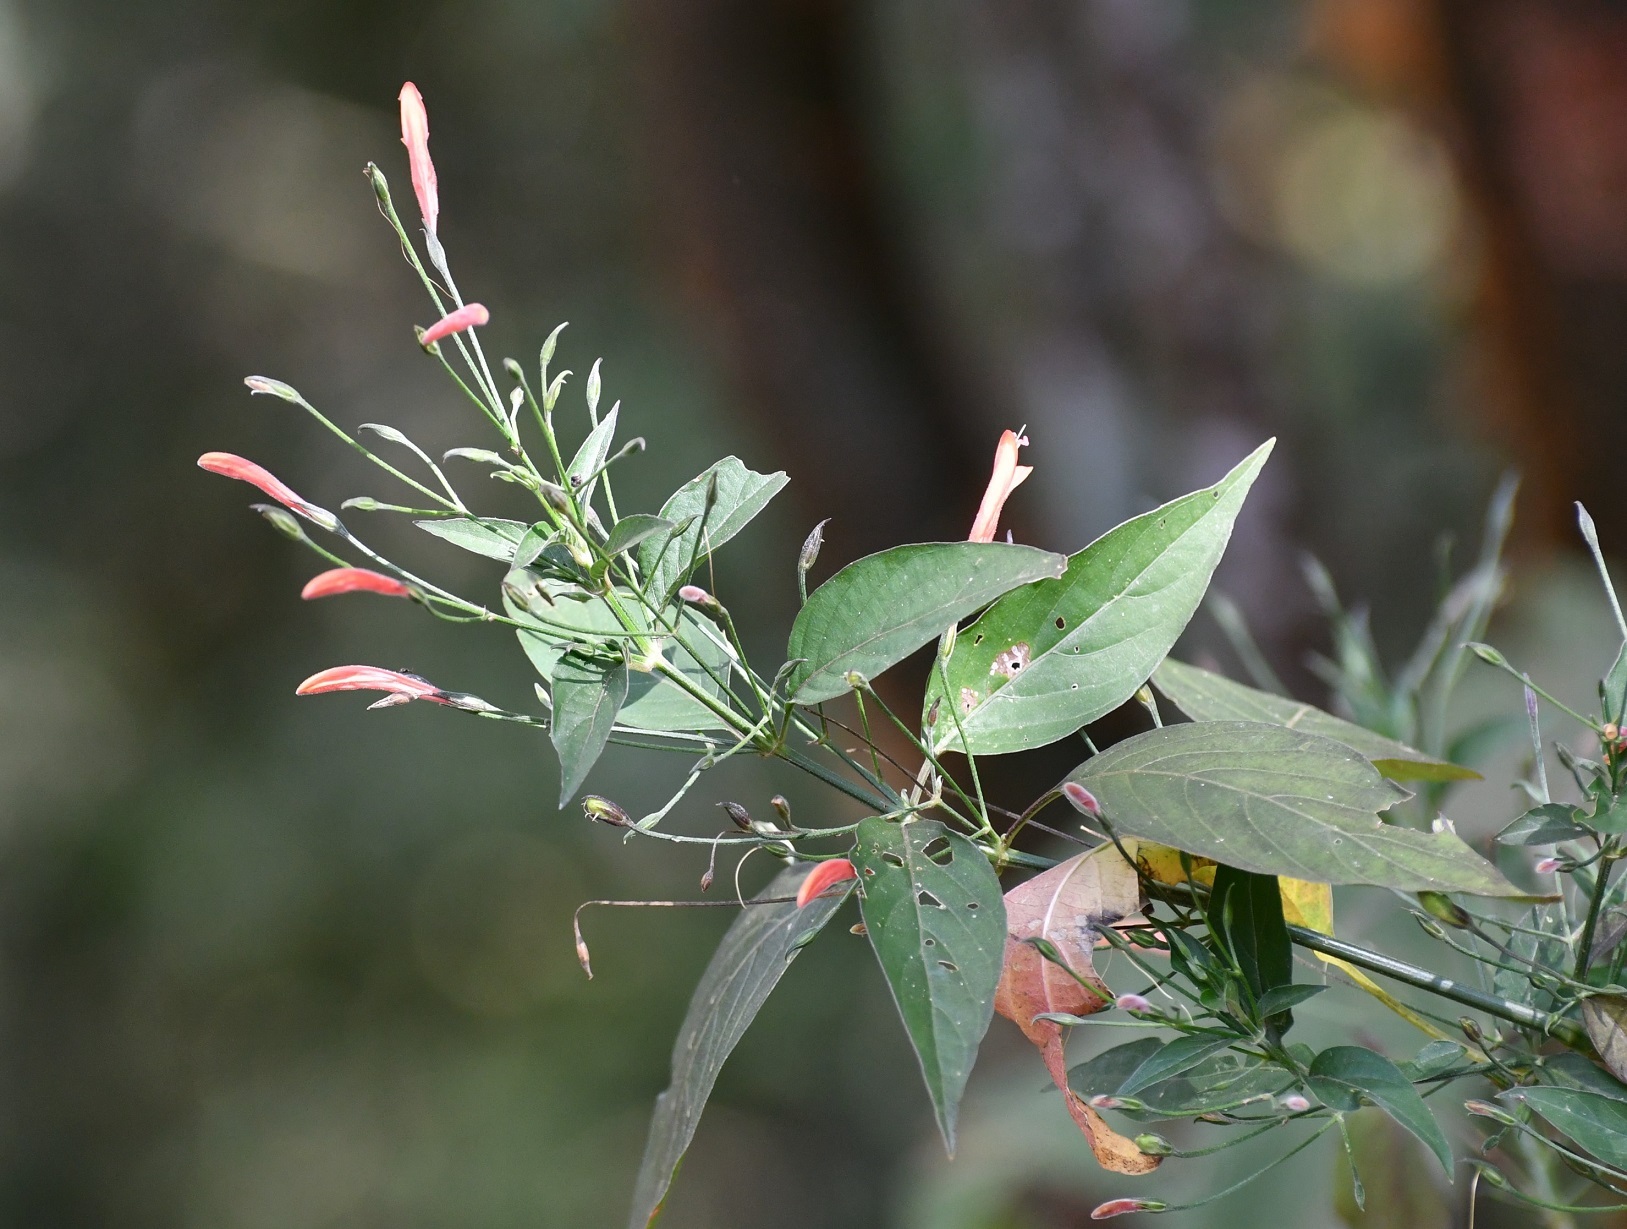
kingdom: Plantae
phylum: Tracheophyta
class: Magnoliopsida
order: Lamiales
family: Acanthaceae
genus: Dicliptera
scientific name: Dicliptera sciadephora
